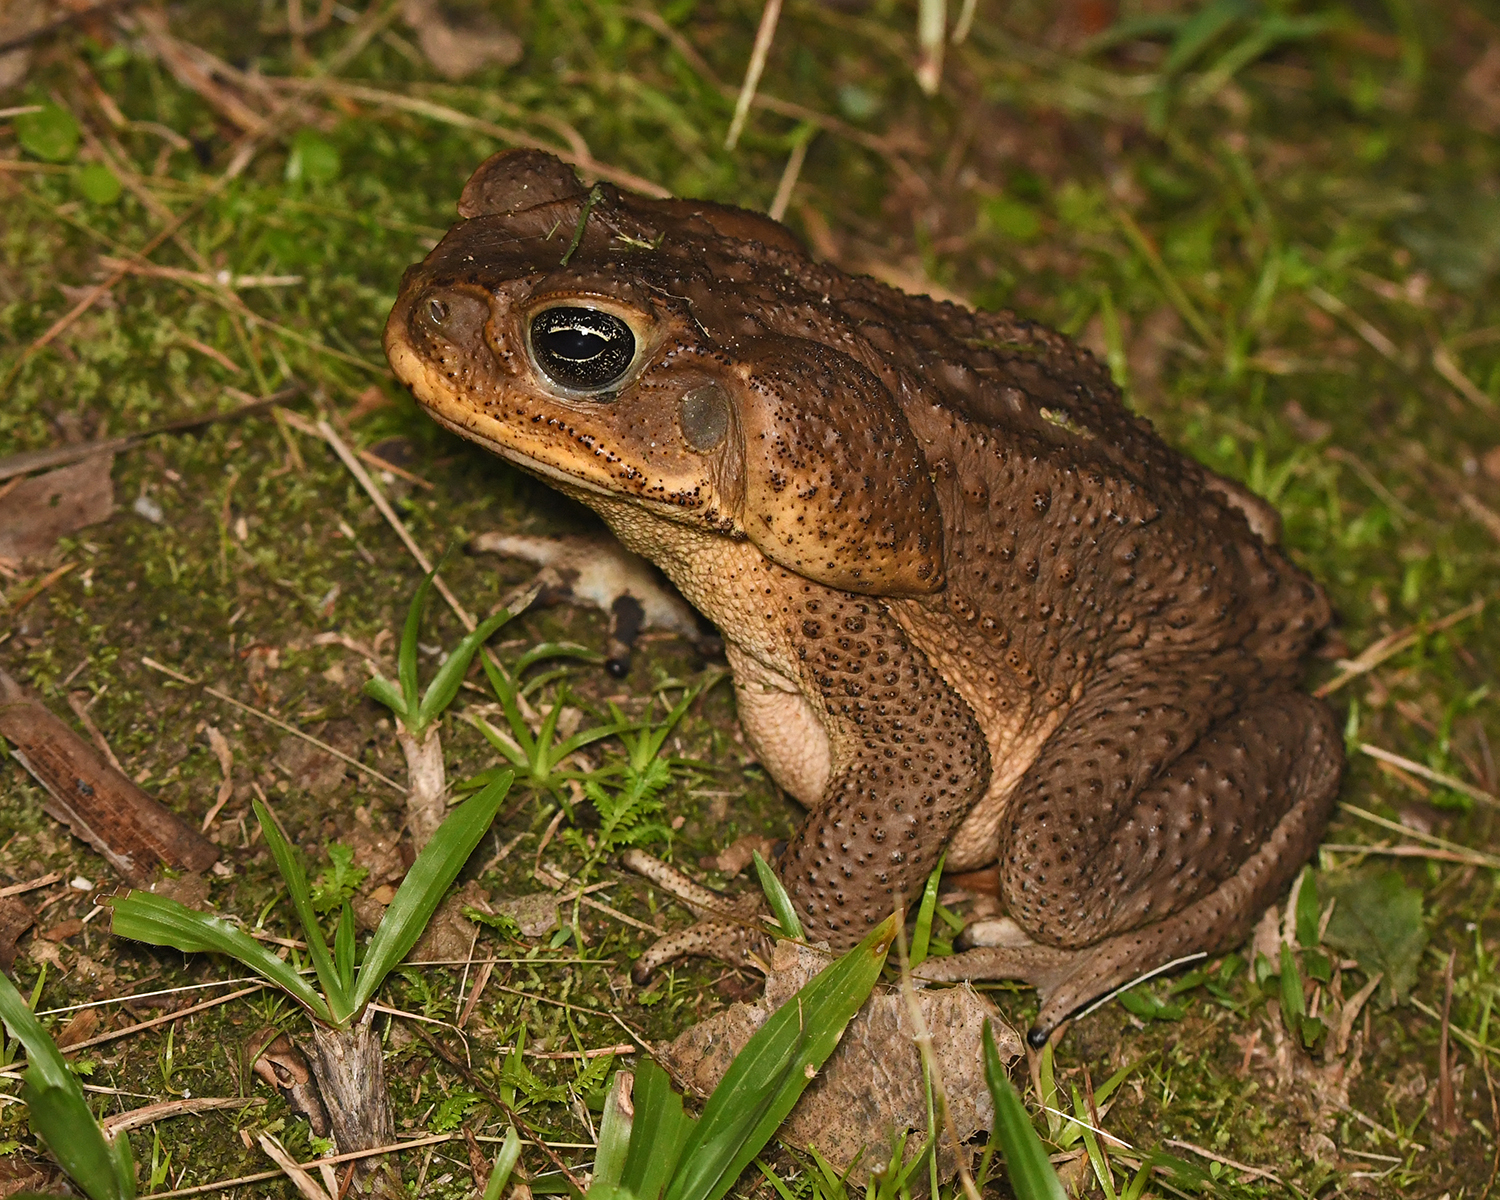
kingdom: Animalia
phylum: Chordata
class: Amphibia
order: Anura
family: Bufonidae
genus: Rhinella
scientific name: Rhinella marina
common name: Cane toad
